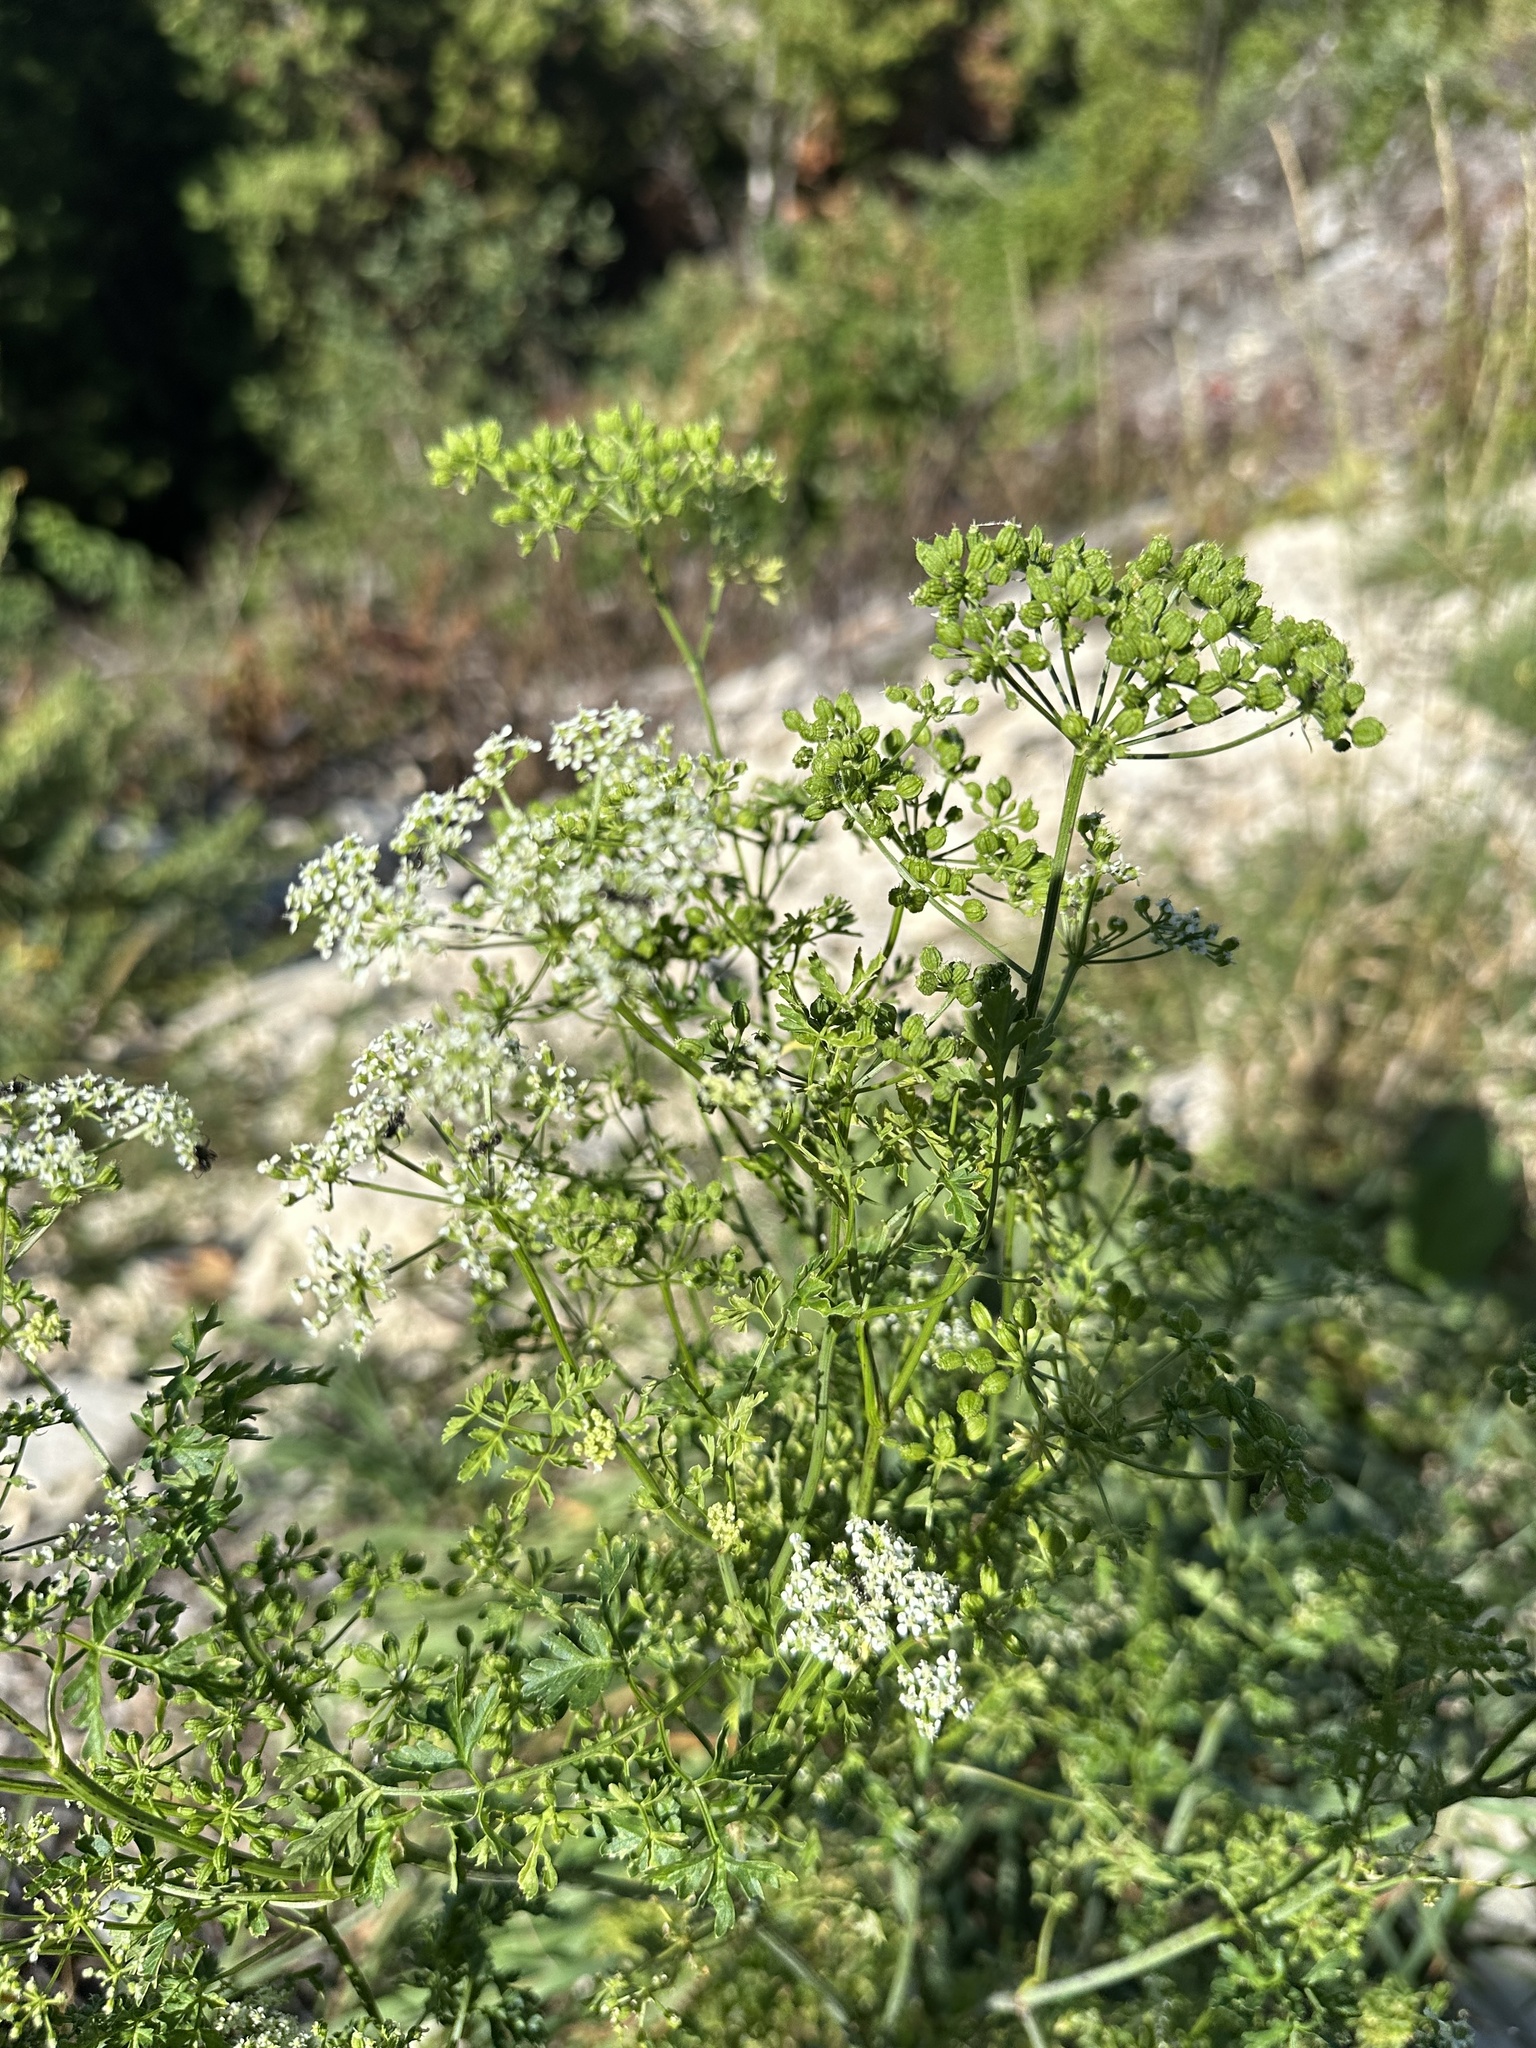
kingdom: Plantae
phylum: Tracheophyta
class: Magnoliopsida
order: Apiales
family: Apiaceae
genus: Conium
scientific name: Conium maculatum
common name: Hemlock
